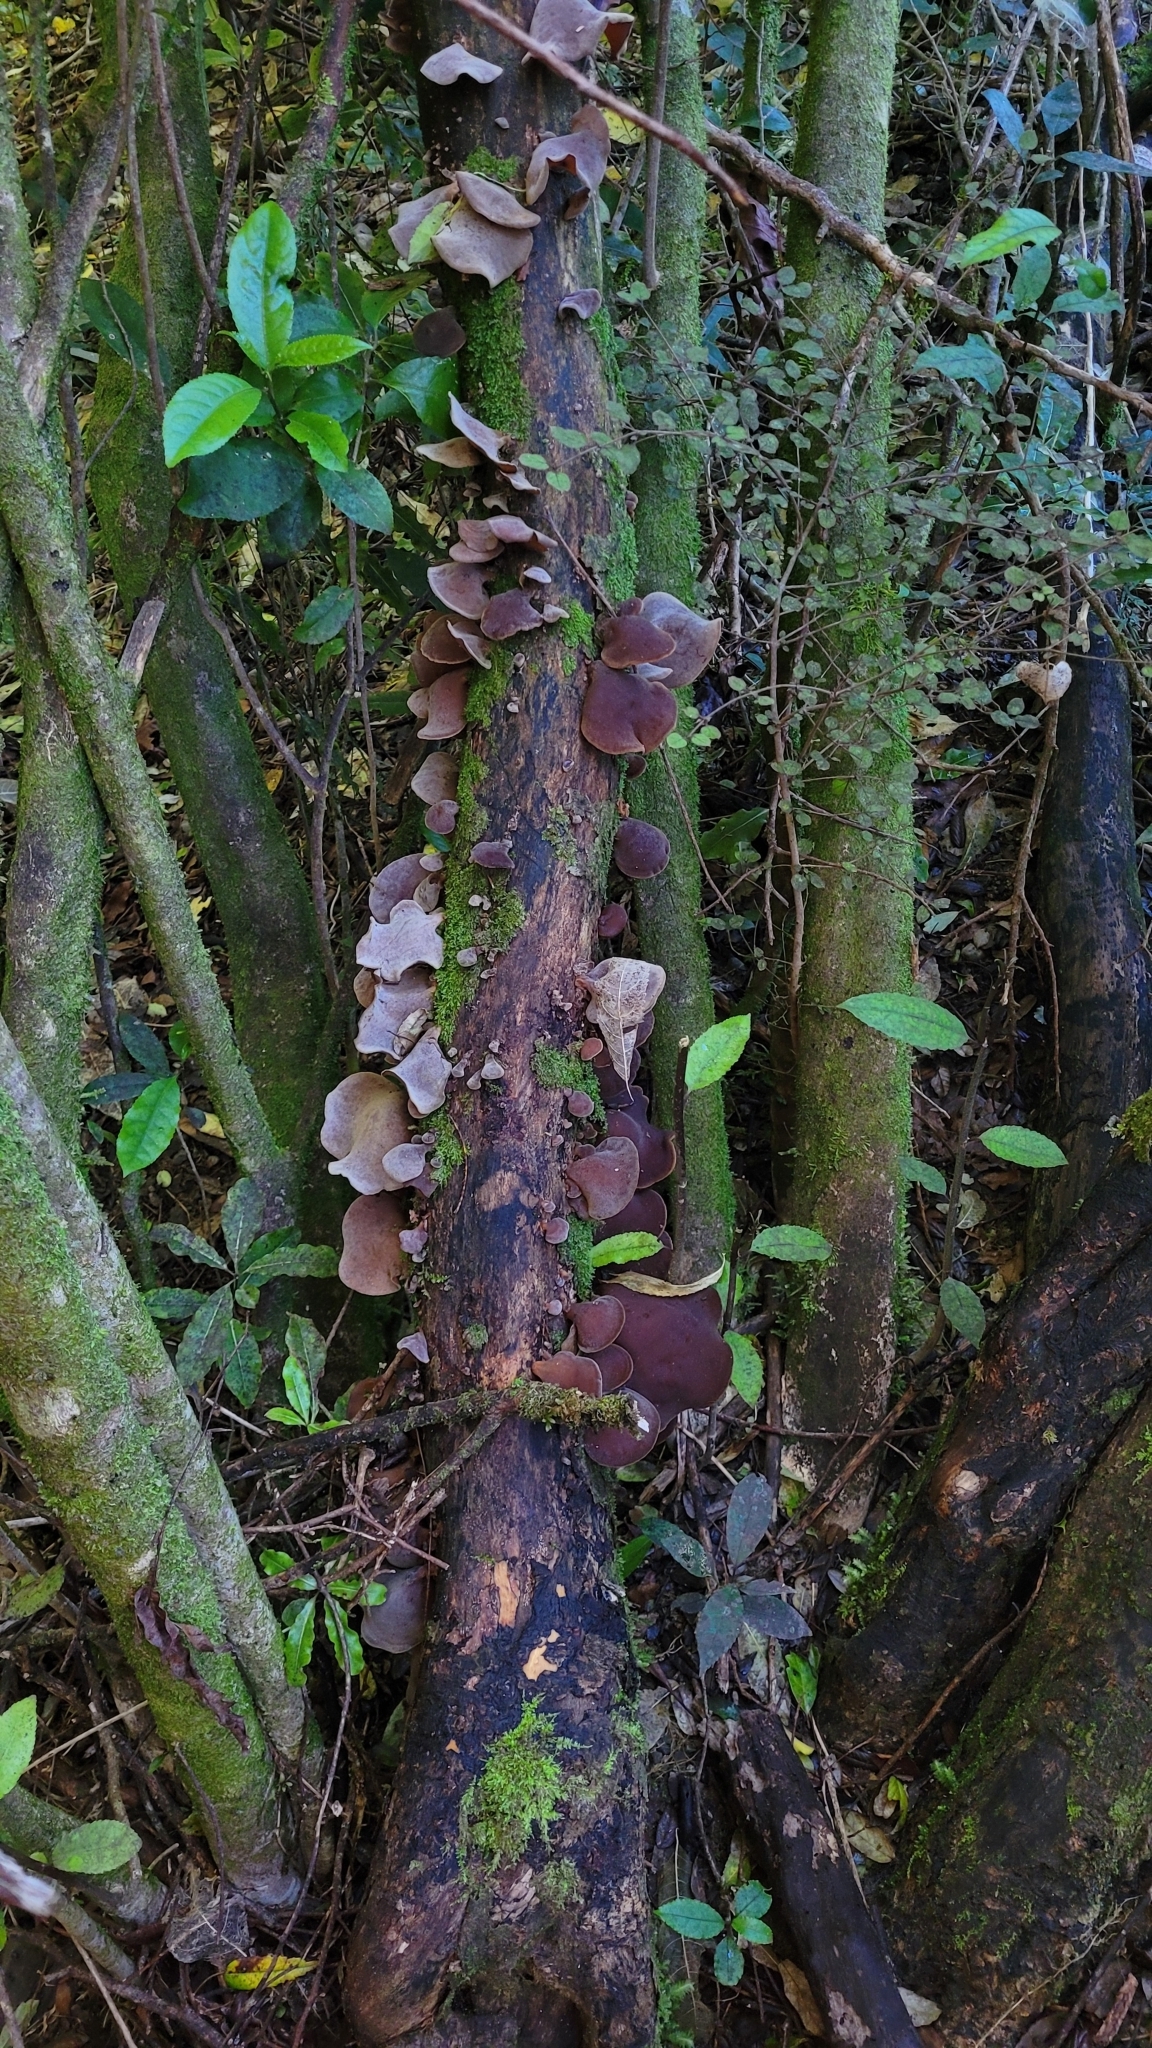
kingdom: Fungi
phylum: Basidiomycota
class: Agaricomycetes
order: Auriculariales
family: Auriculariaceae
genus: Auricularia
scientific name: Auricularia cornea
